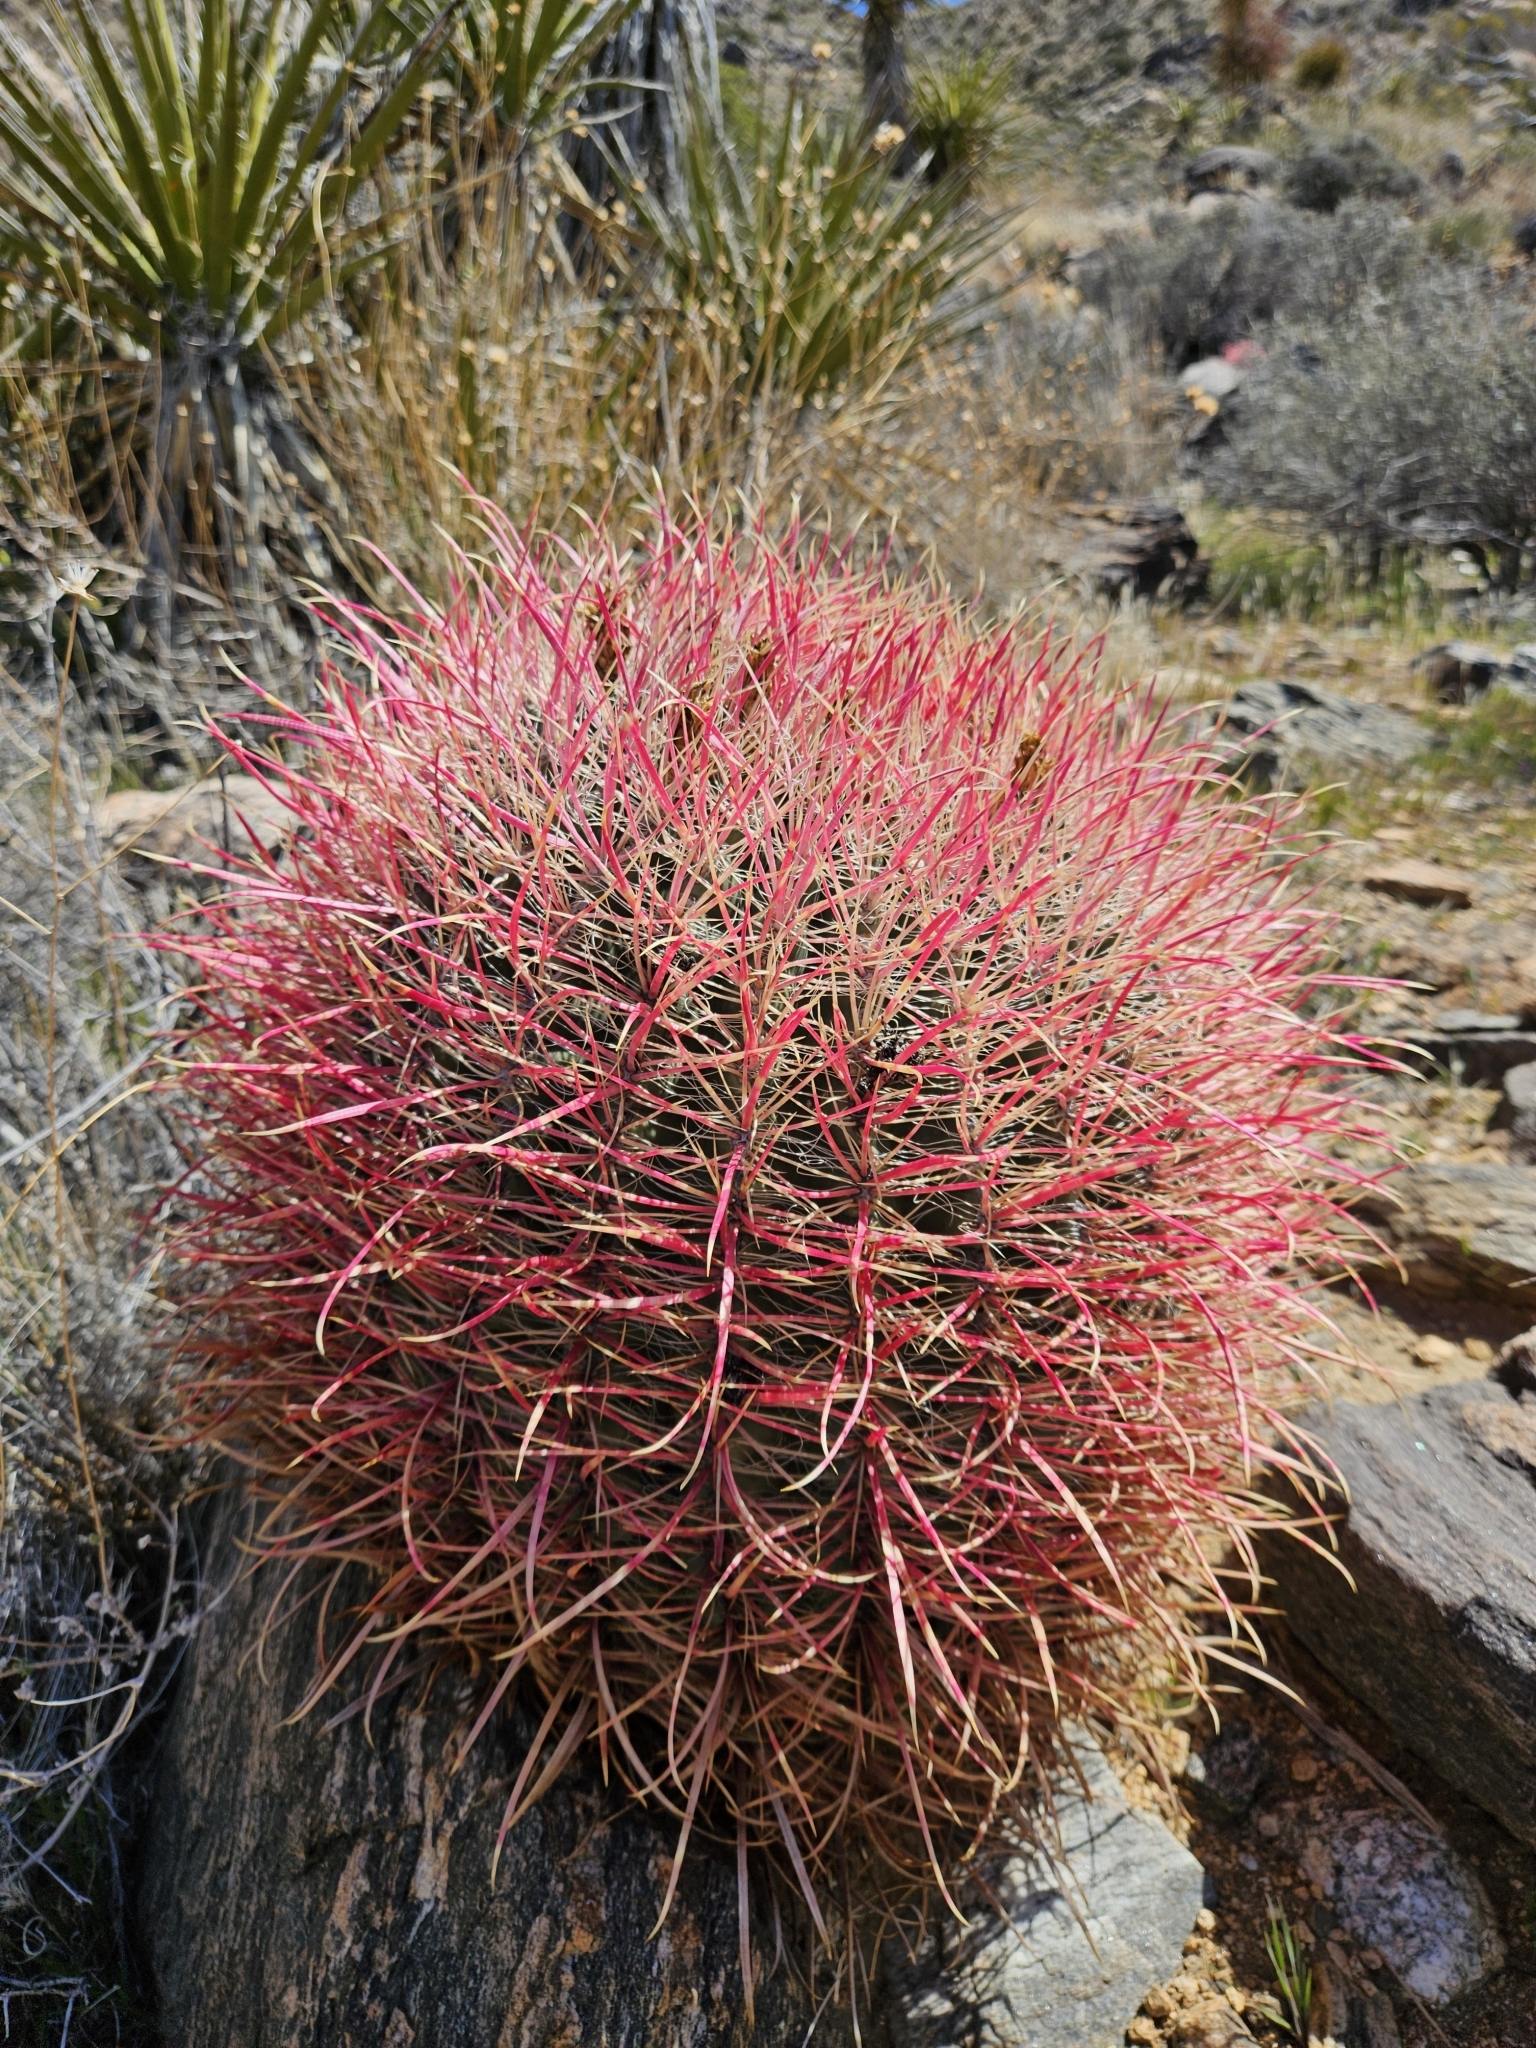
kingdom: Plantae
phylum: Tracheophyta
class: Magnoliopsida
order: Caryophyllales
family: Cactaceae
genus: Ferocactus
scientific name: Ferocactus cylindraceus
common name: California barrel cactus
